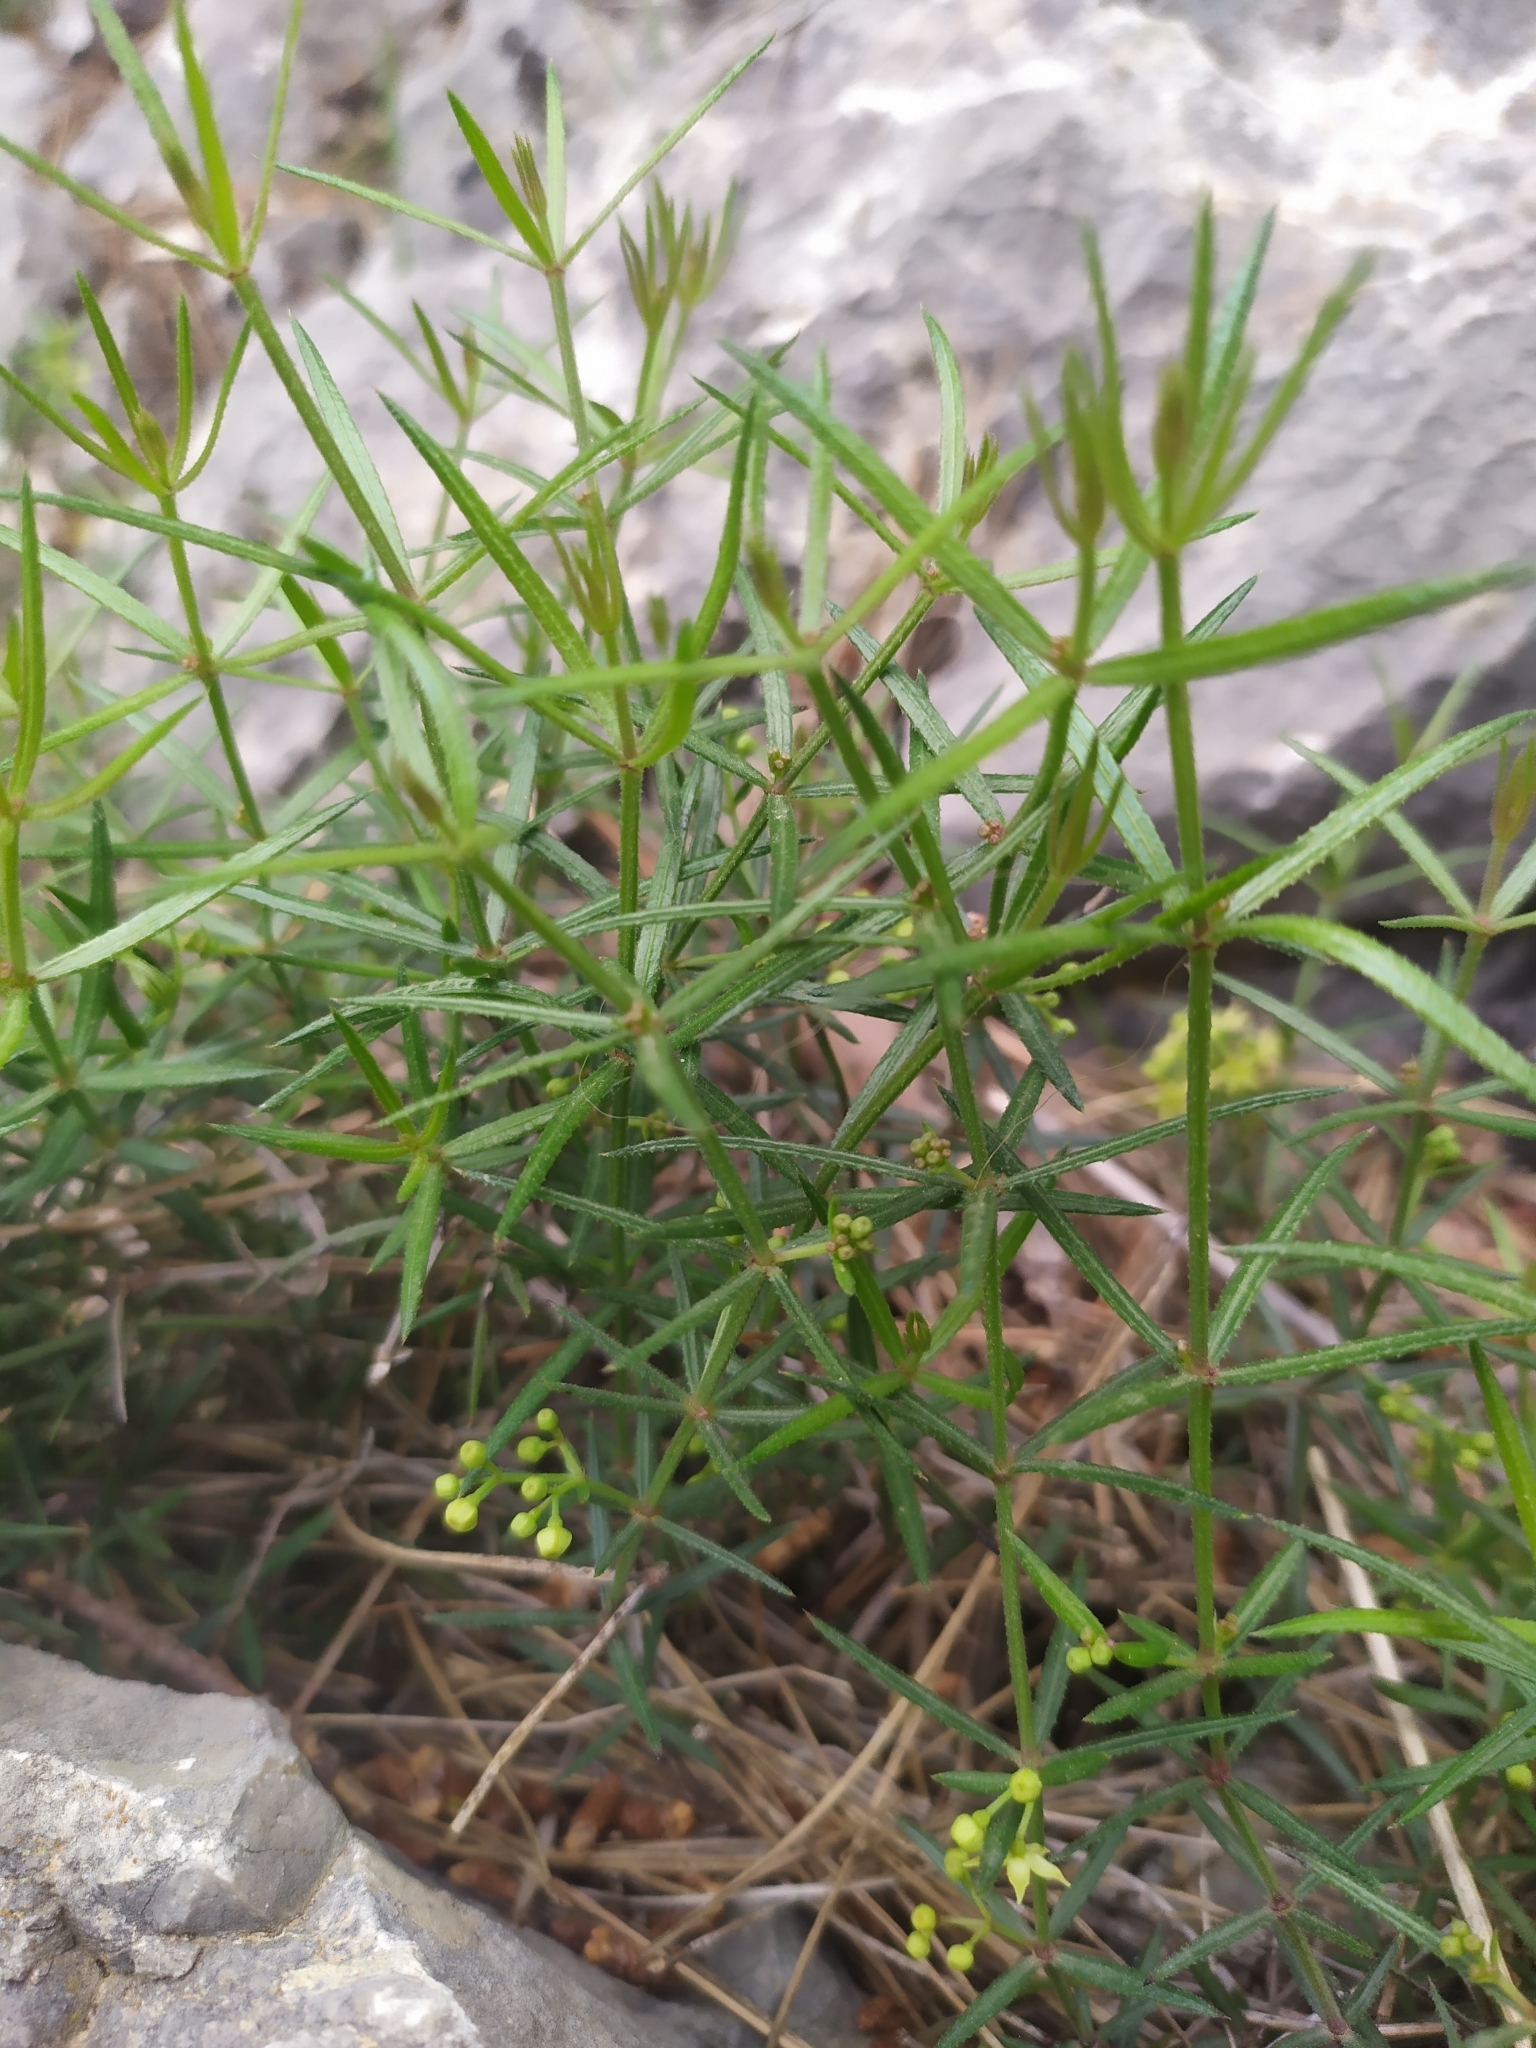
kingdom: Plantae
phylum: Tracheophyta
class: Magnoliopsida
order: Gentianales
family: Rubiaceae
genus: Rubia
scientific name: Rubia peregrina
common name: Wild madder
